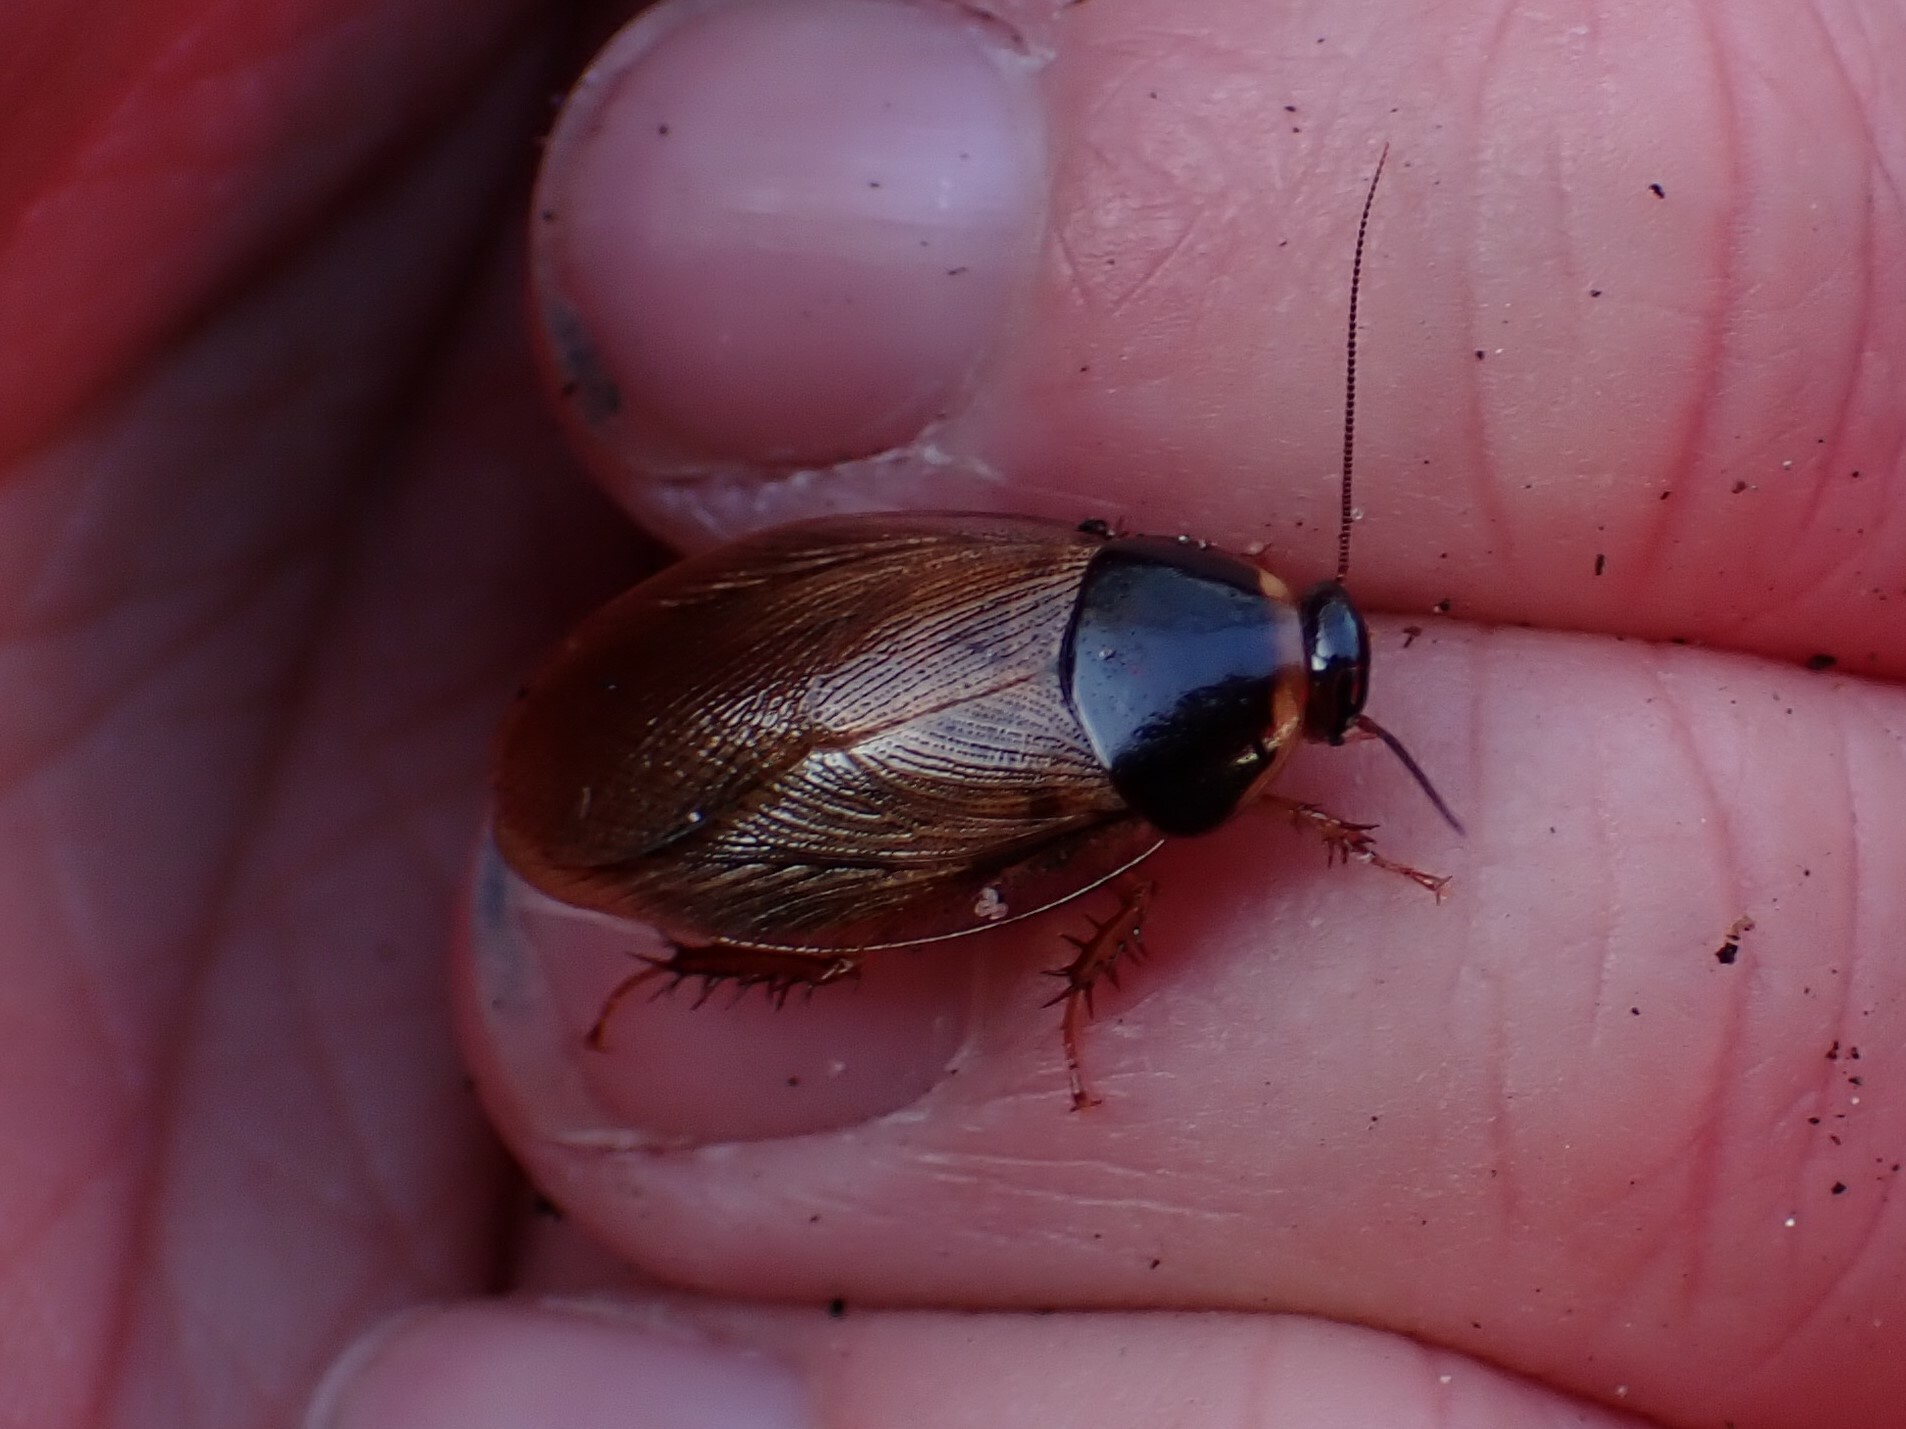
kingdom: Animalia
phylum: Arthropoda
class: Insecta
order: Blattodea
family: Blaberidae
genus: Pycnoscelus
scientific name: Pycnoscelus surinamensis
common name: Surinam cockroach
